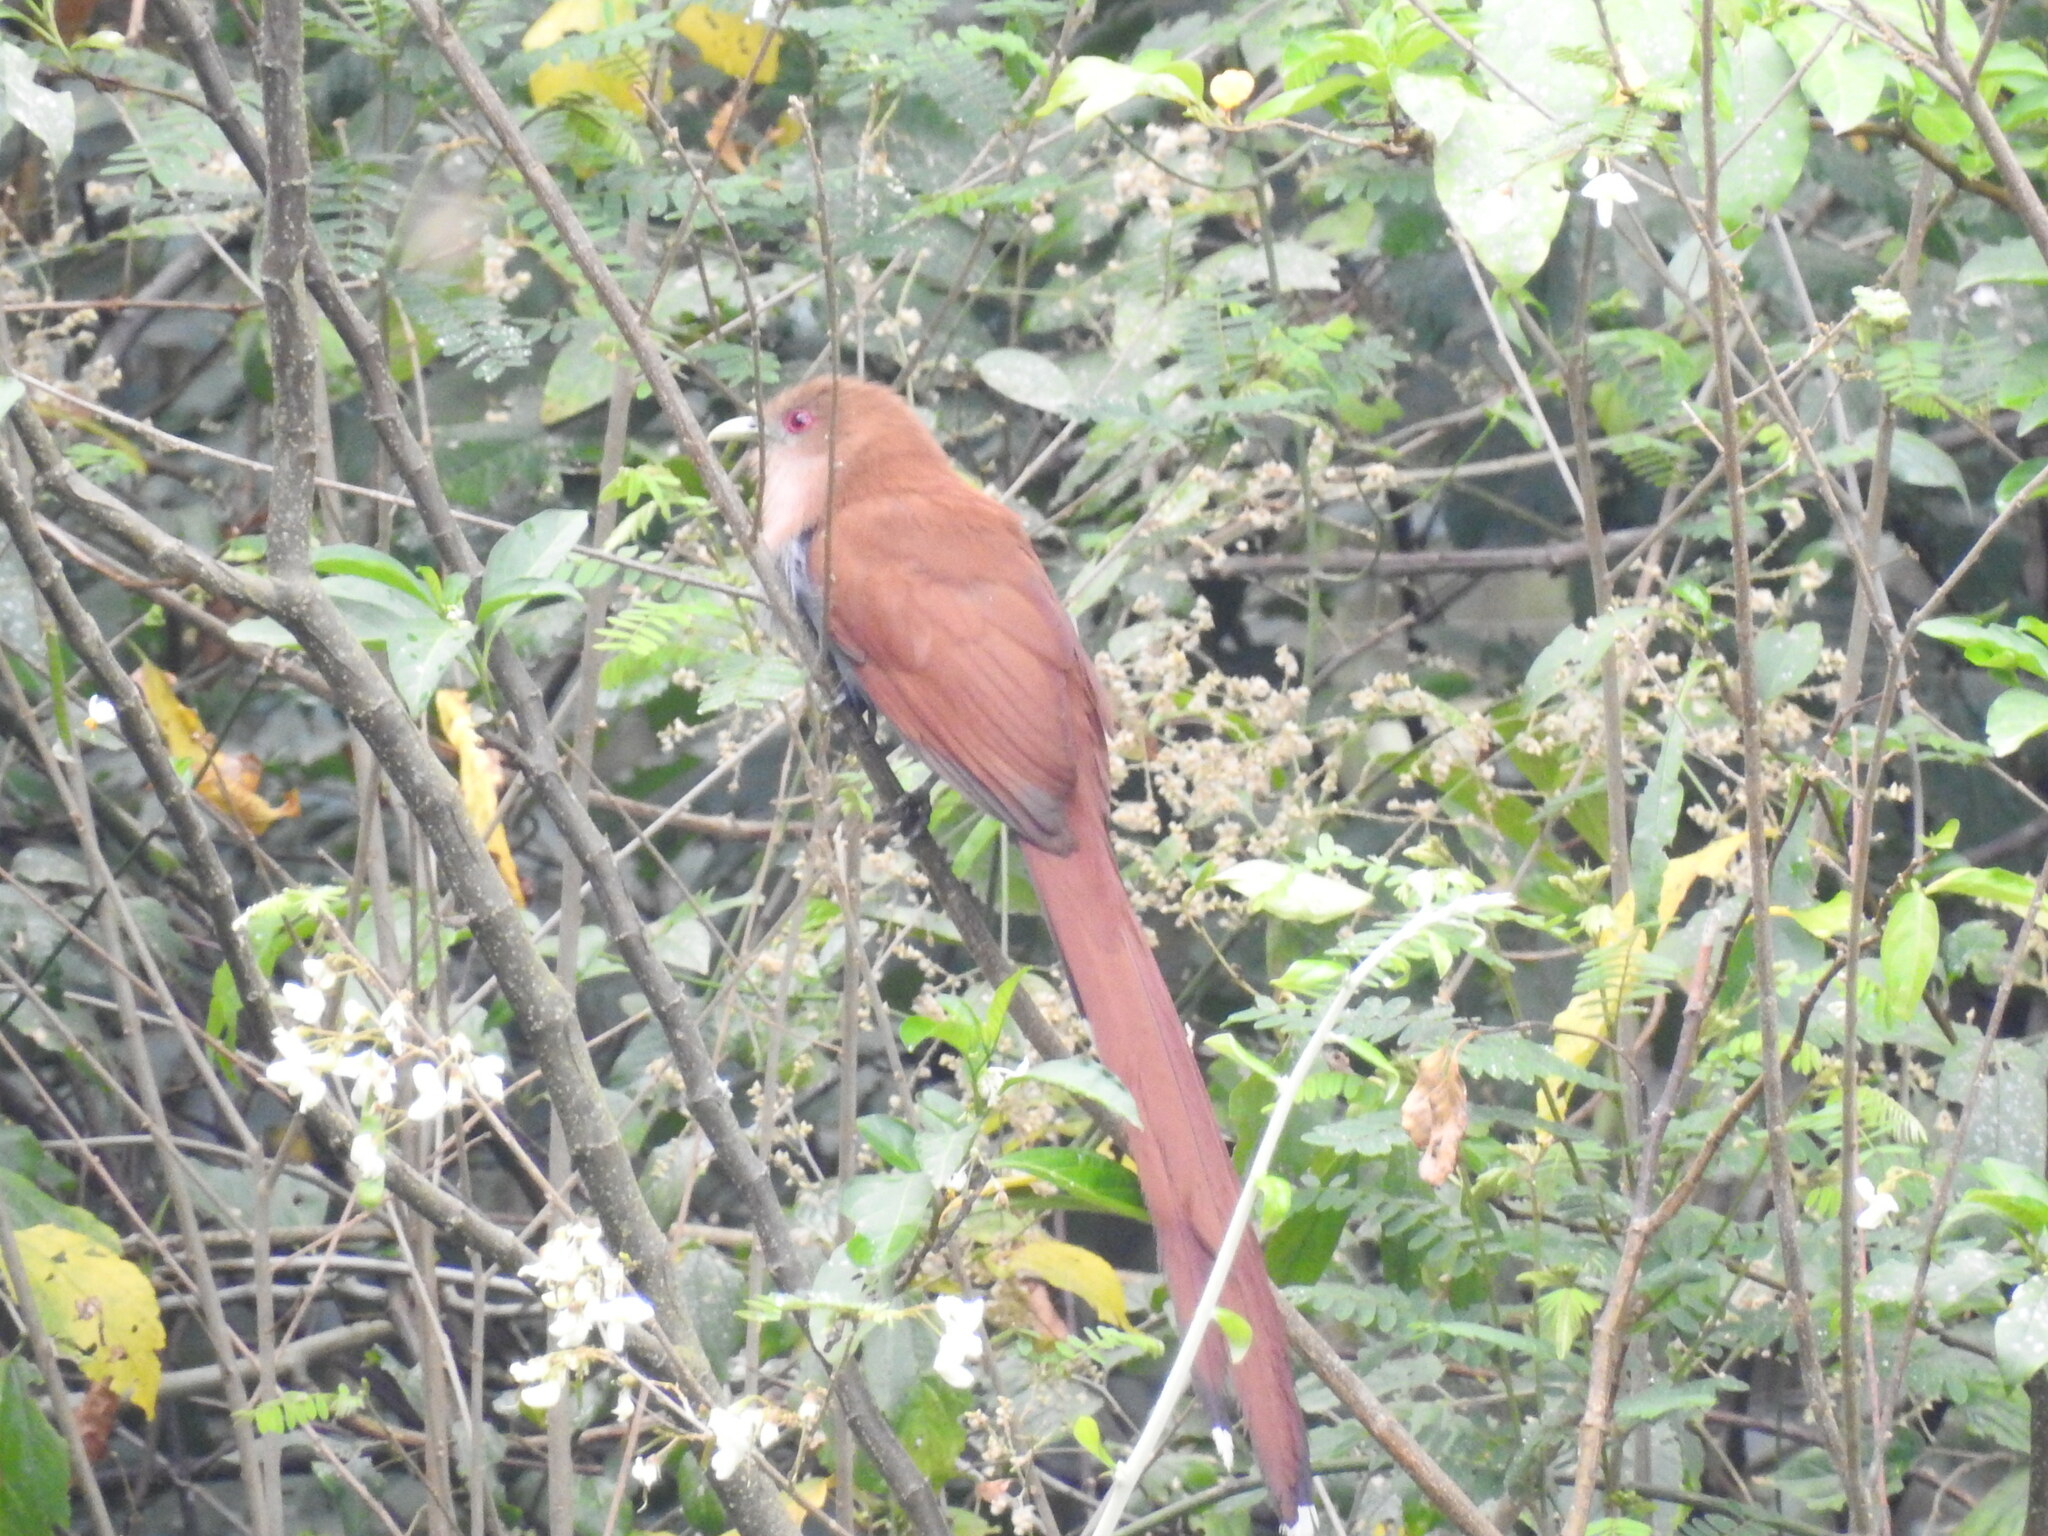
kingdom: Animalia
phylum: Chordata
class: Aves
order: Cuculiformes
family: Cuculidae
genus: Piaya
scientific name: Piaya cayana
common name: Squirrel cuckoo
